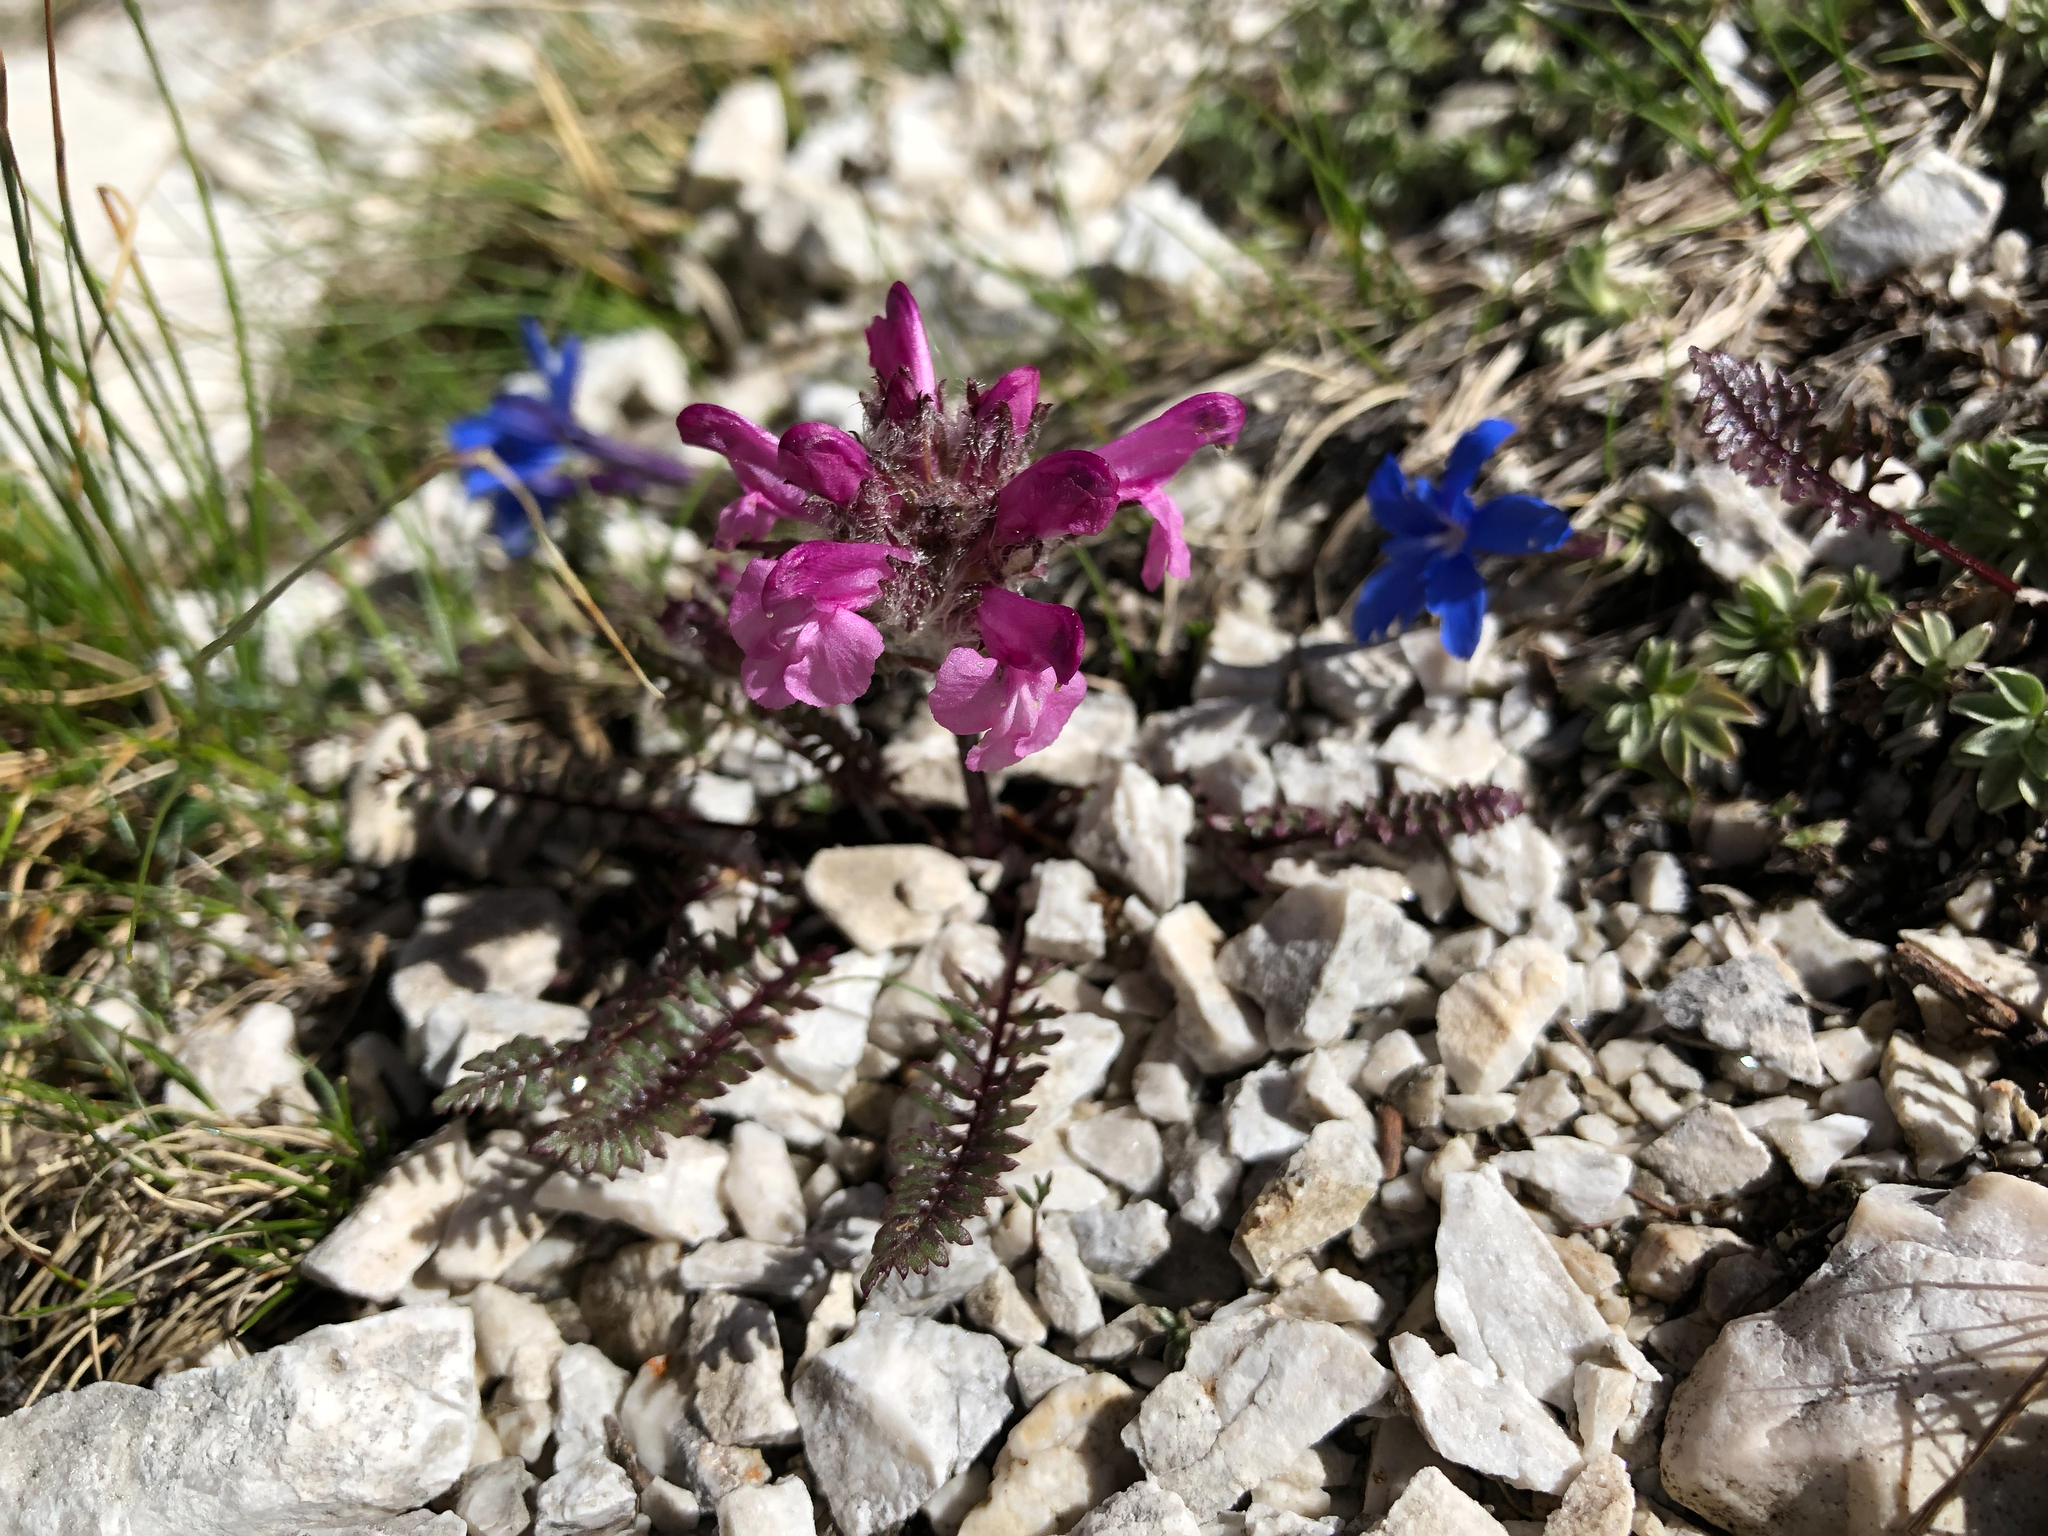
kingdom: Plantae
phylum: Tracheophyta
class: Magnoliopsida
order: Lamiales
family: Orobanchaceae
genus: Pedicularis
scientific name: Pedicularis rosea
